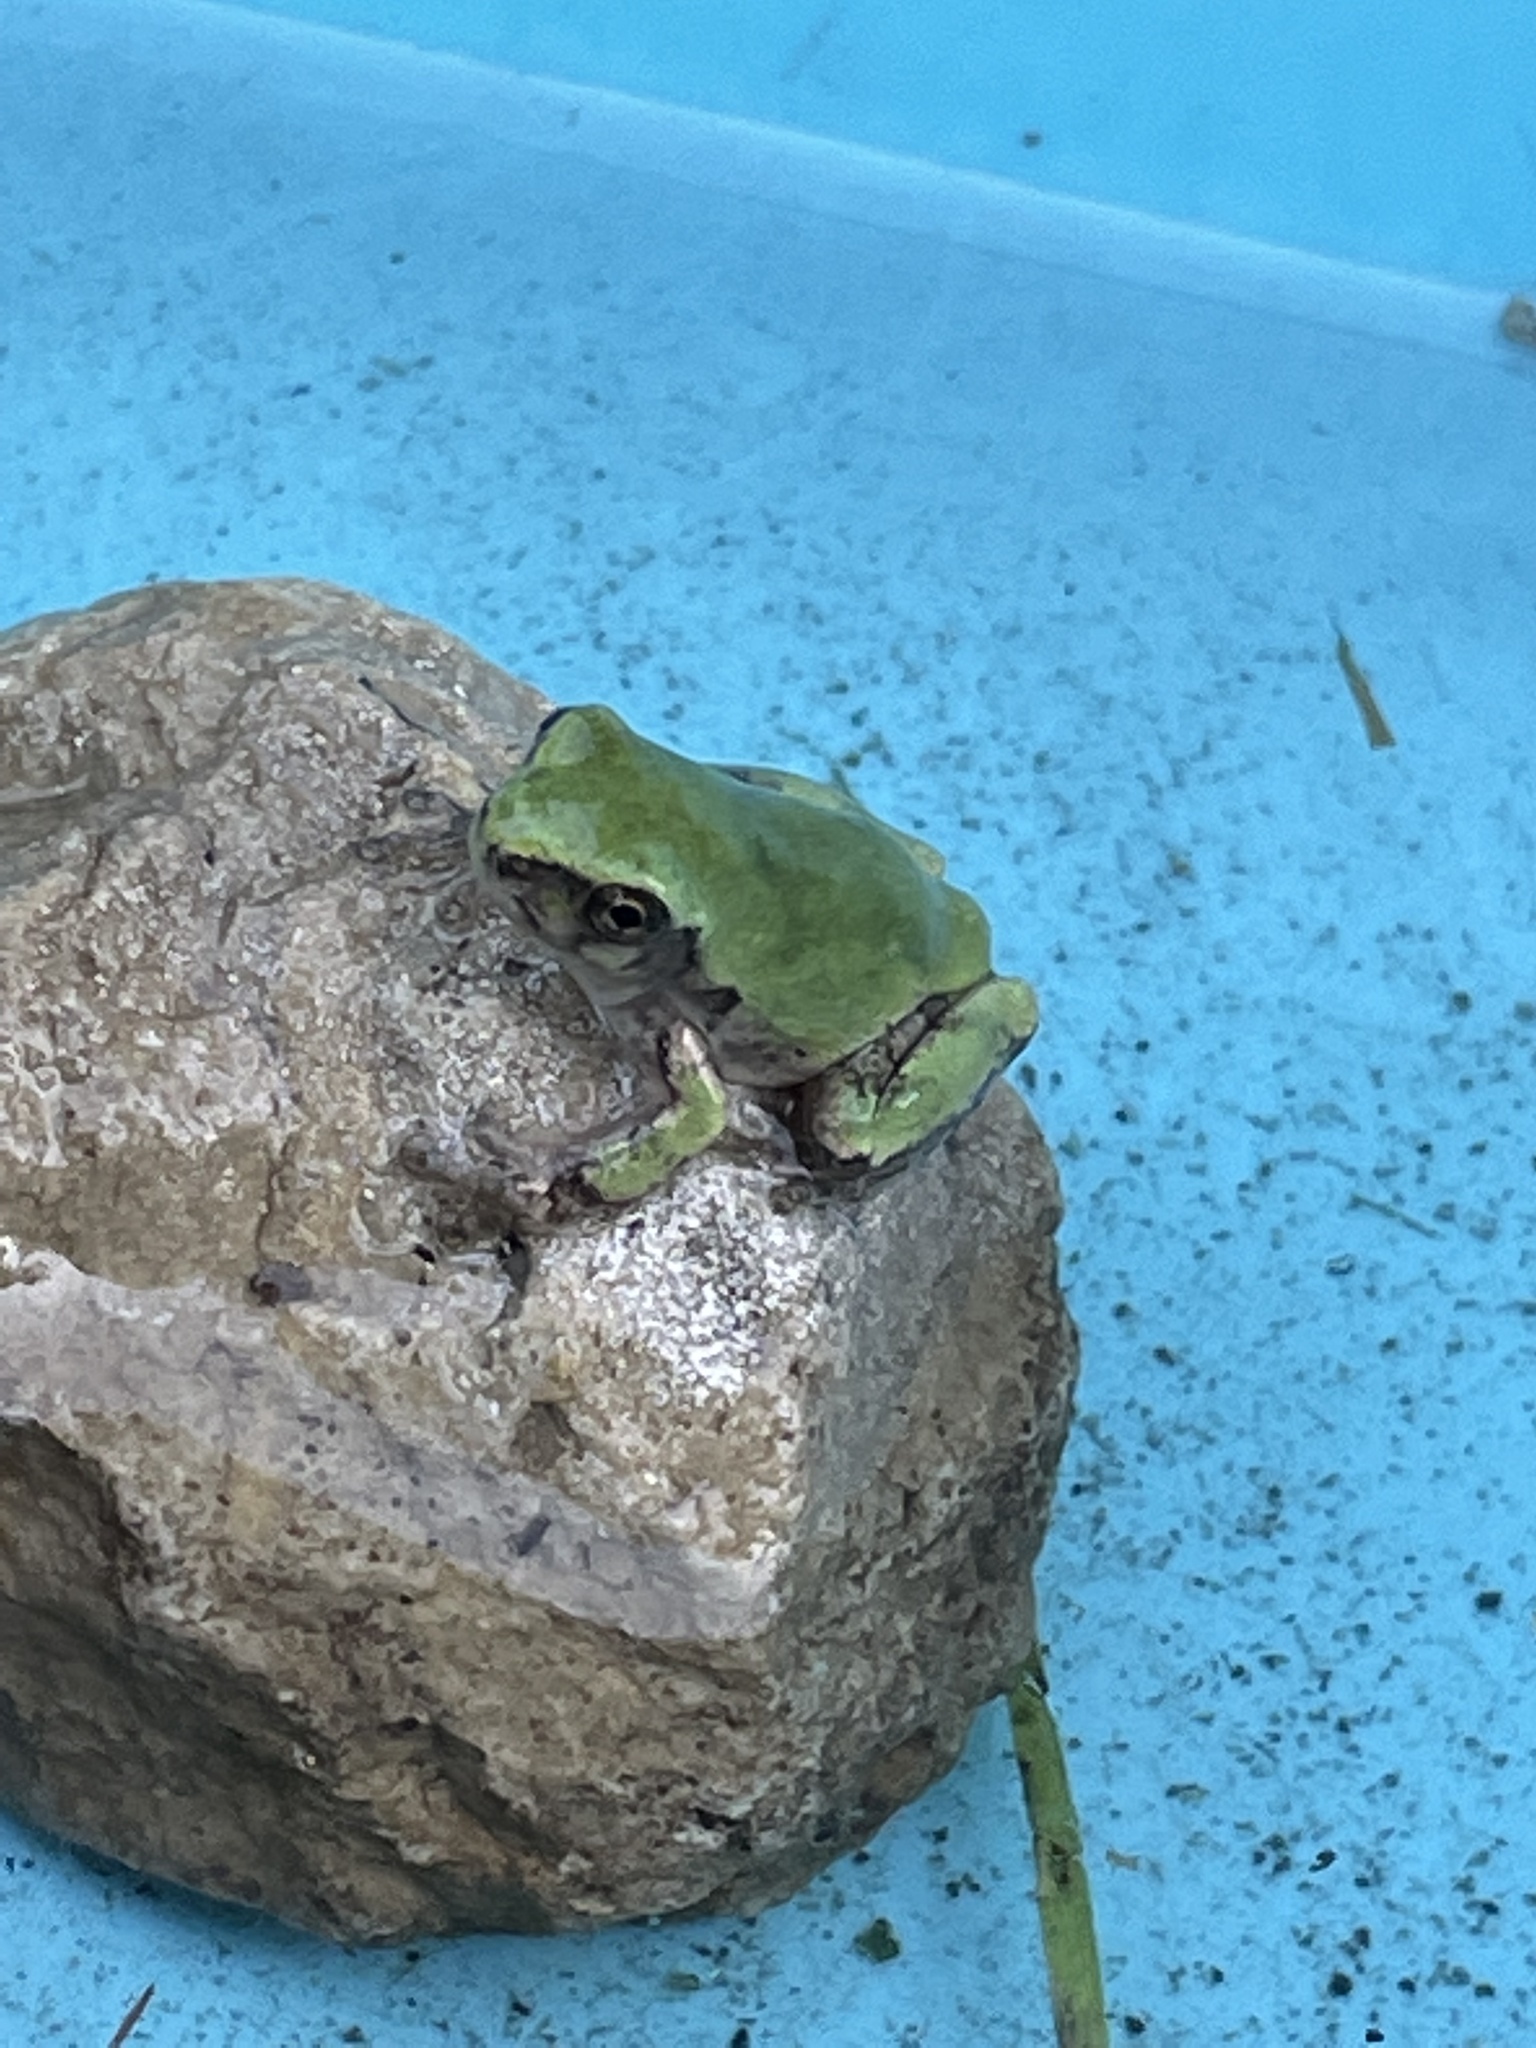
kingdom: Animalia
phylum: Chordata
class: Amphibia
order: Anura
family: Hylidae
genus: Hyla
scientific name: Hyla
